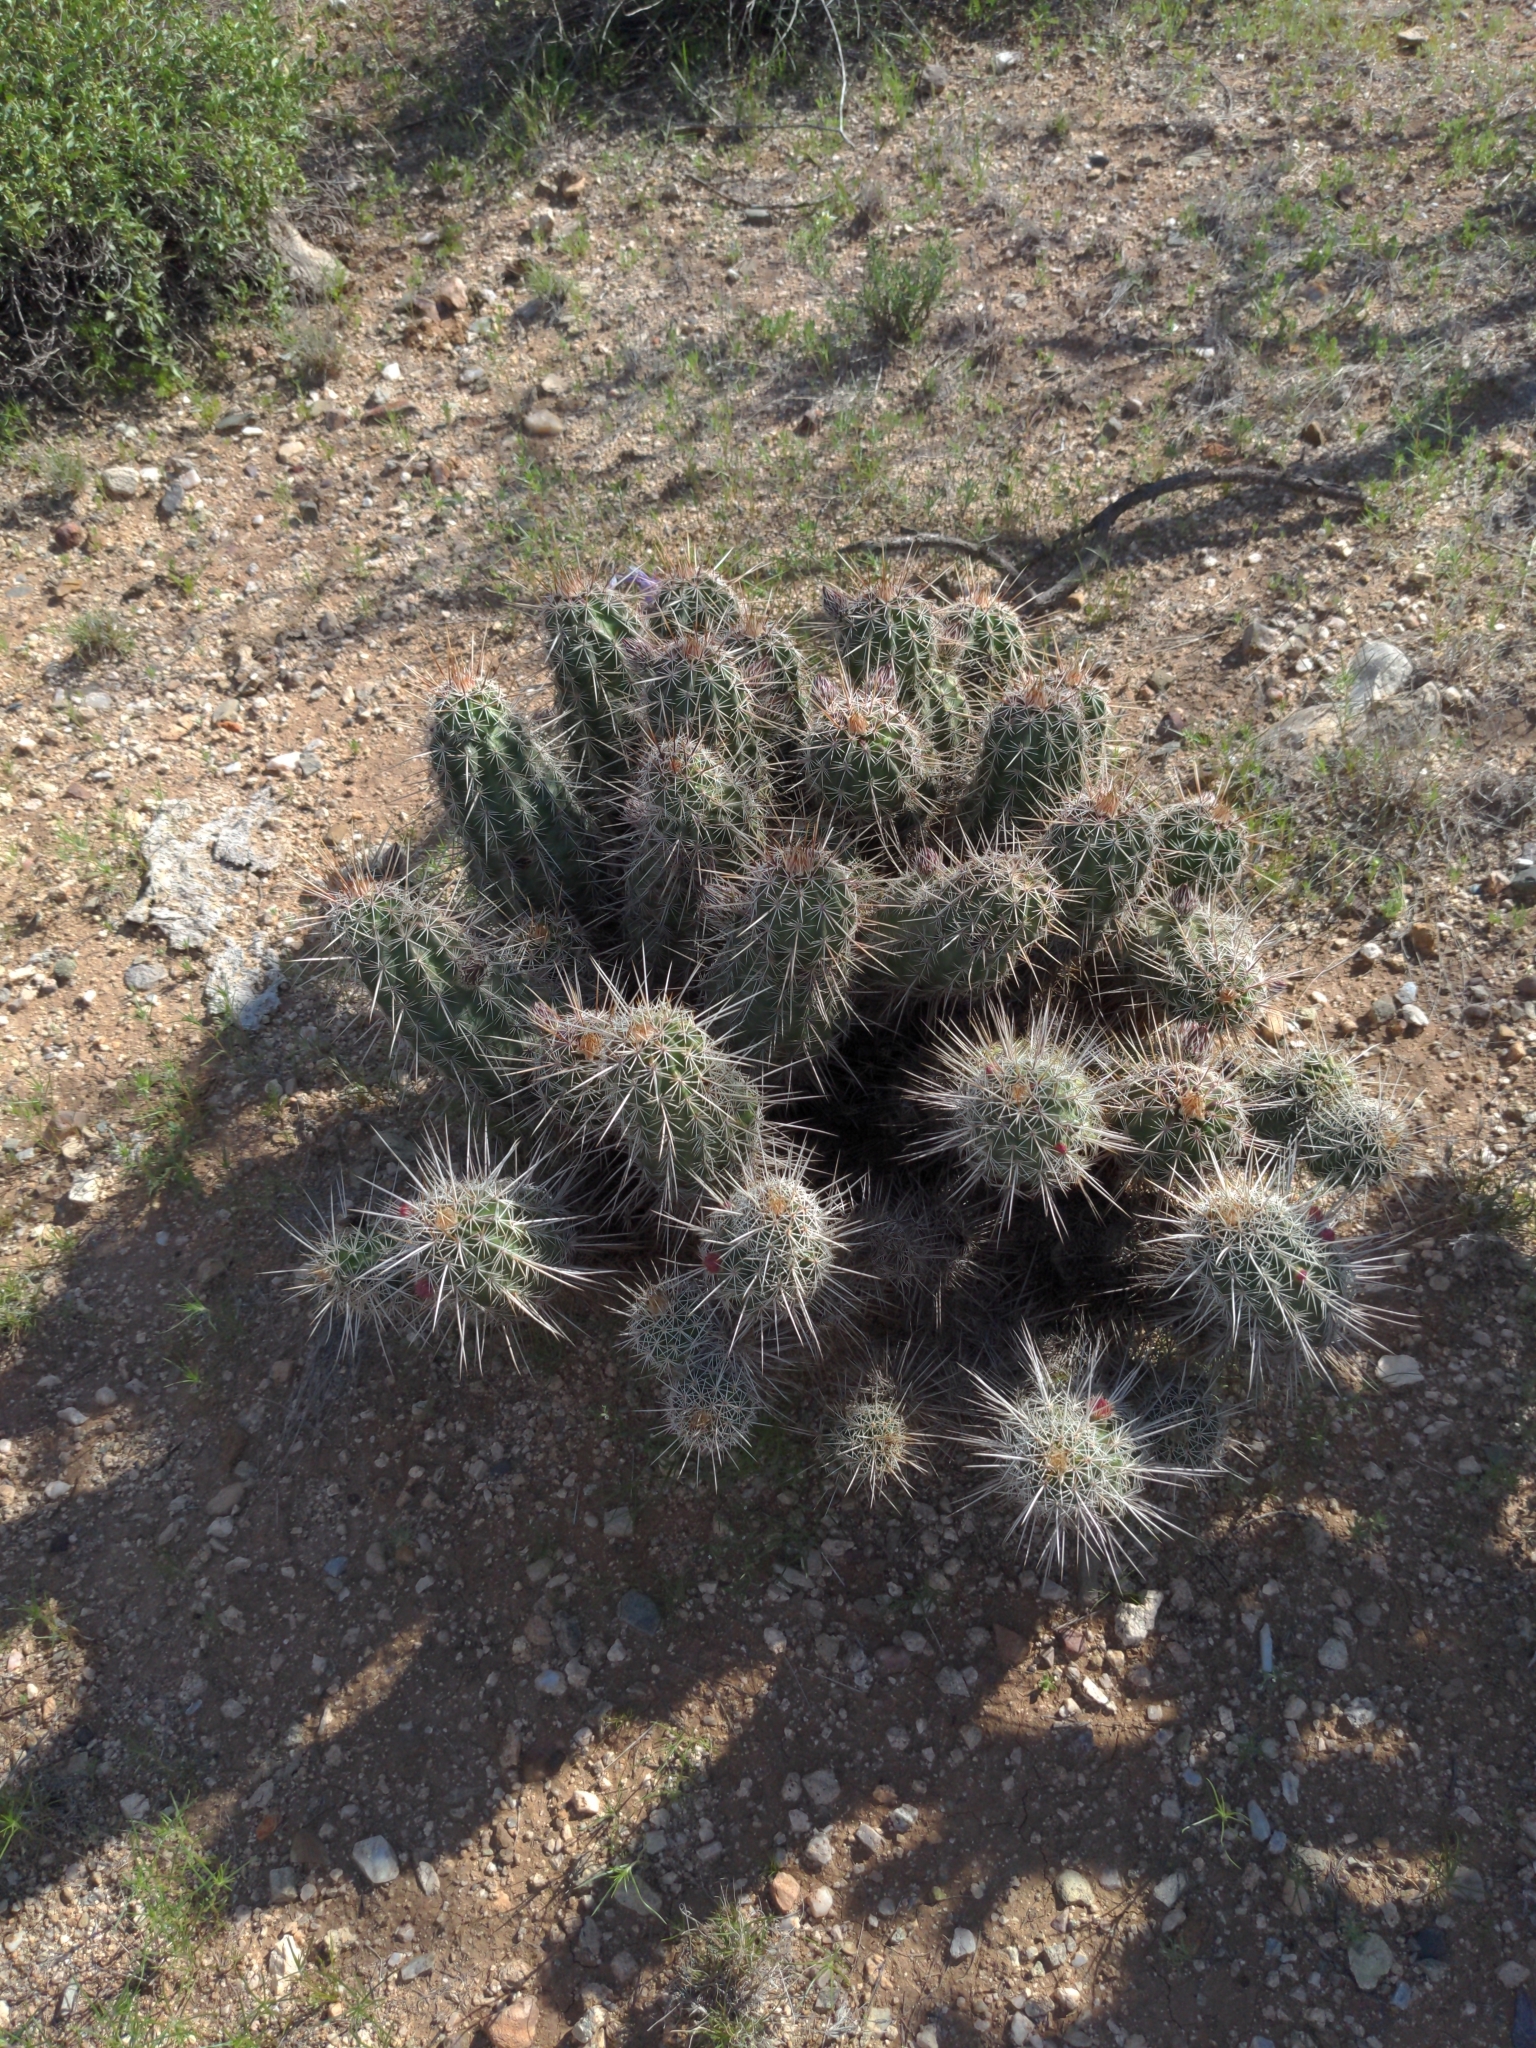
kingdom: Plantae
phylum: Tracheophyta
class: Magnoliopsida
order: Caryophyllales
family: Cactaceae
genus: Echinocereus
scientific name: Echinocereus fasciculatus
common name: Bundle hedgehog
